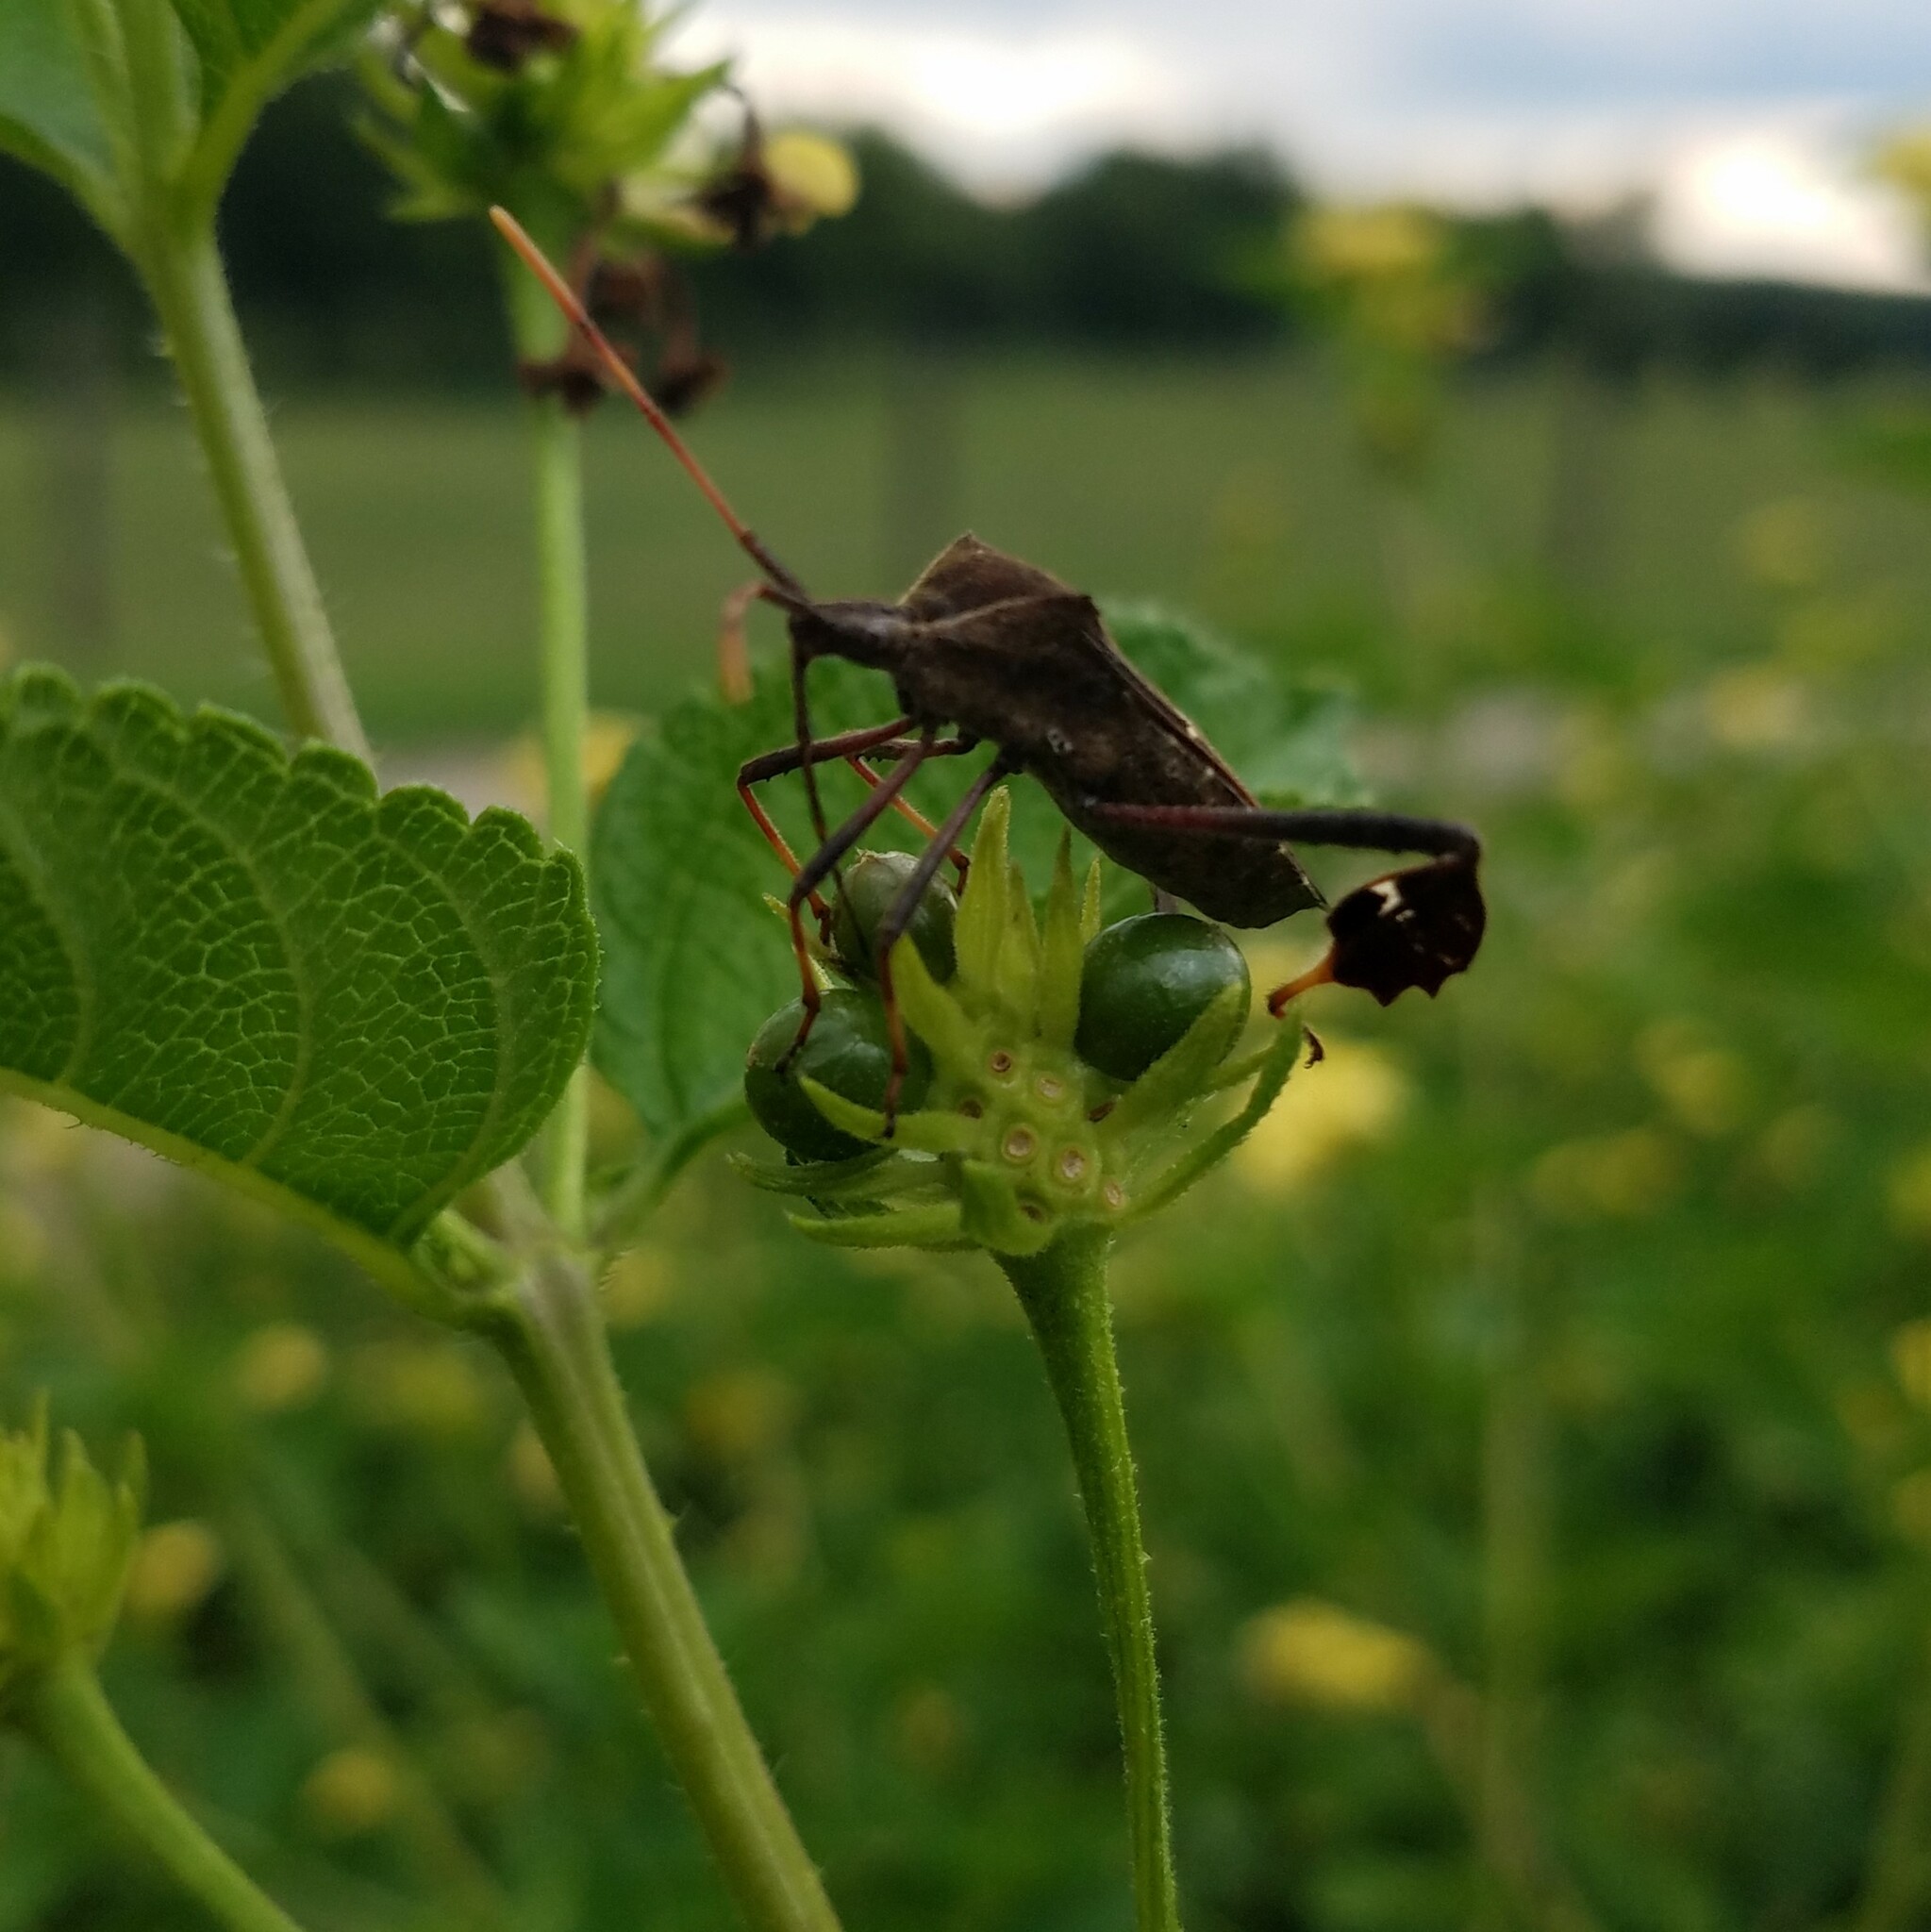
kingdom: Animalia
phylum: Arthropoda
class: Insecta
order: Hemiptera
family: Coreidae
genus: Leptoglossus
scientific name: Leptoglossus phyllopus
